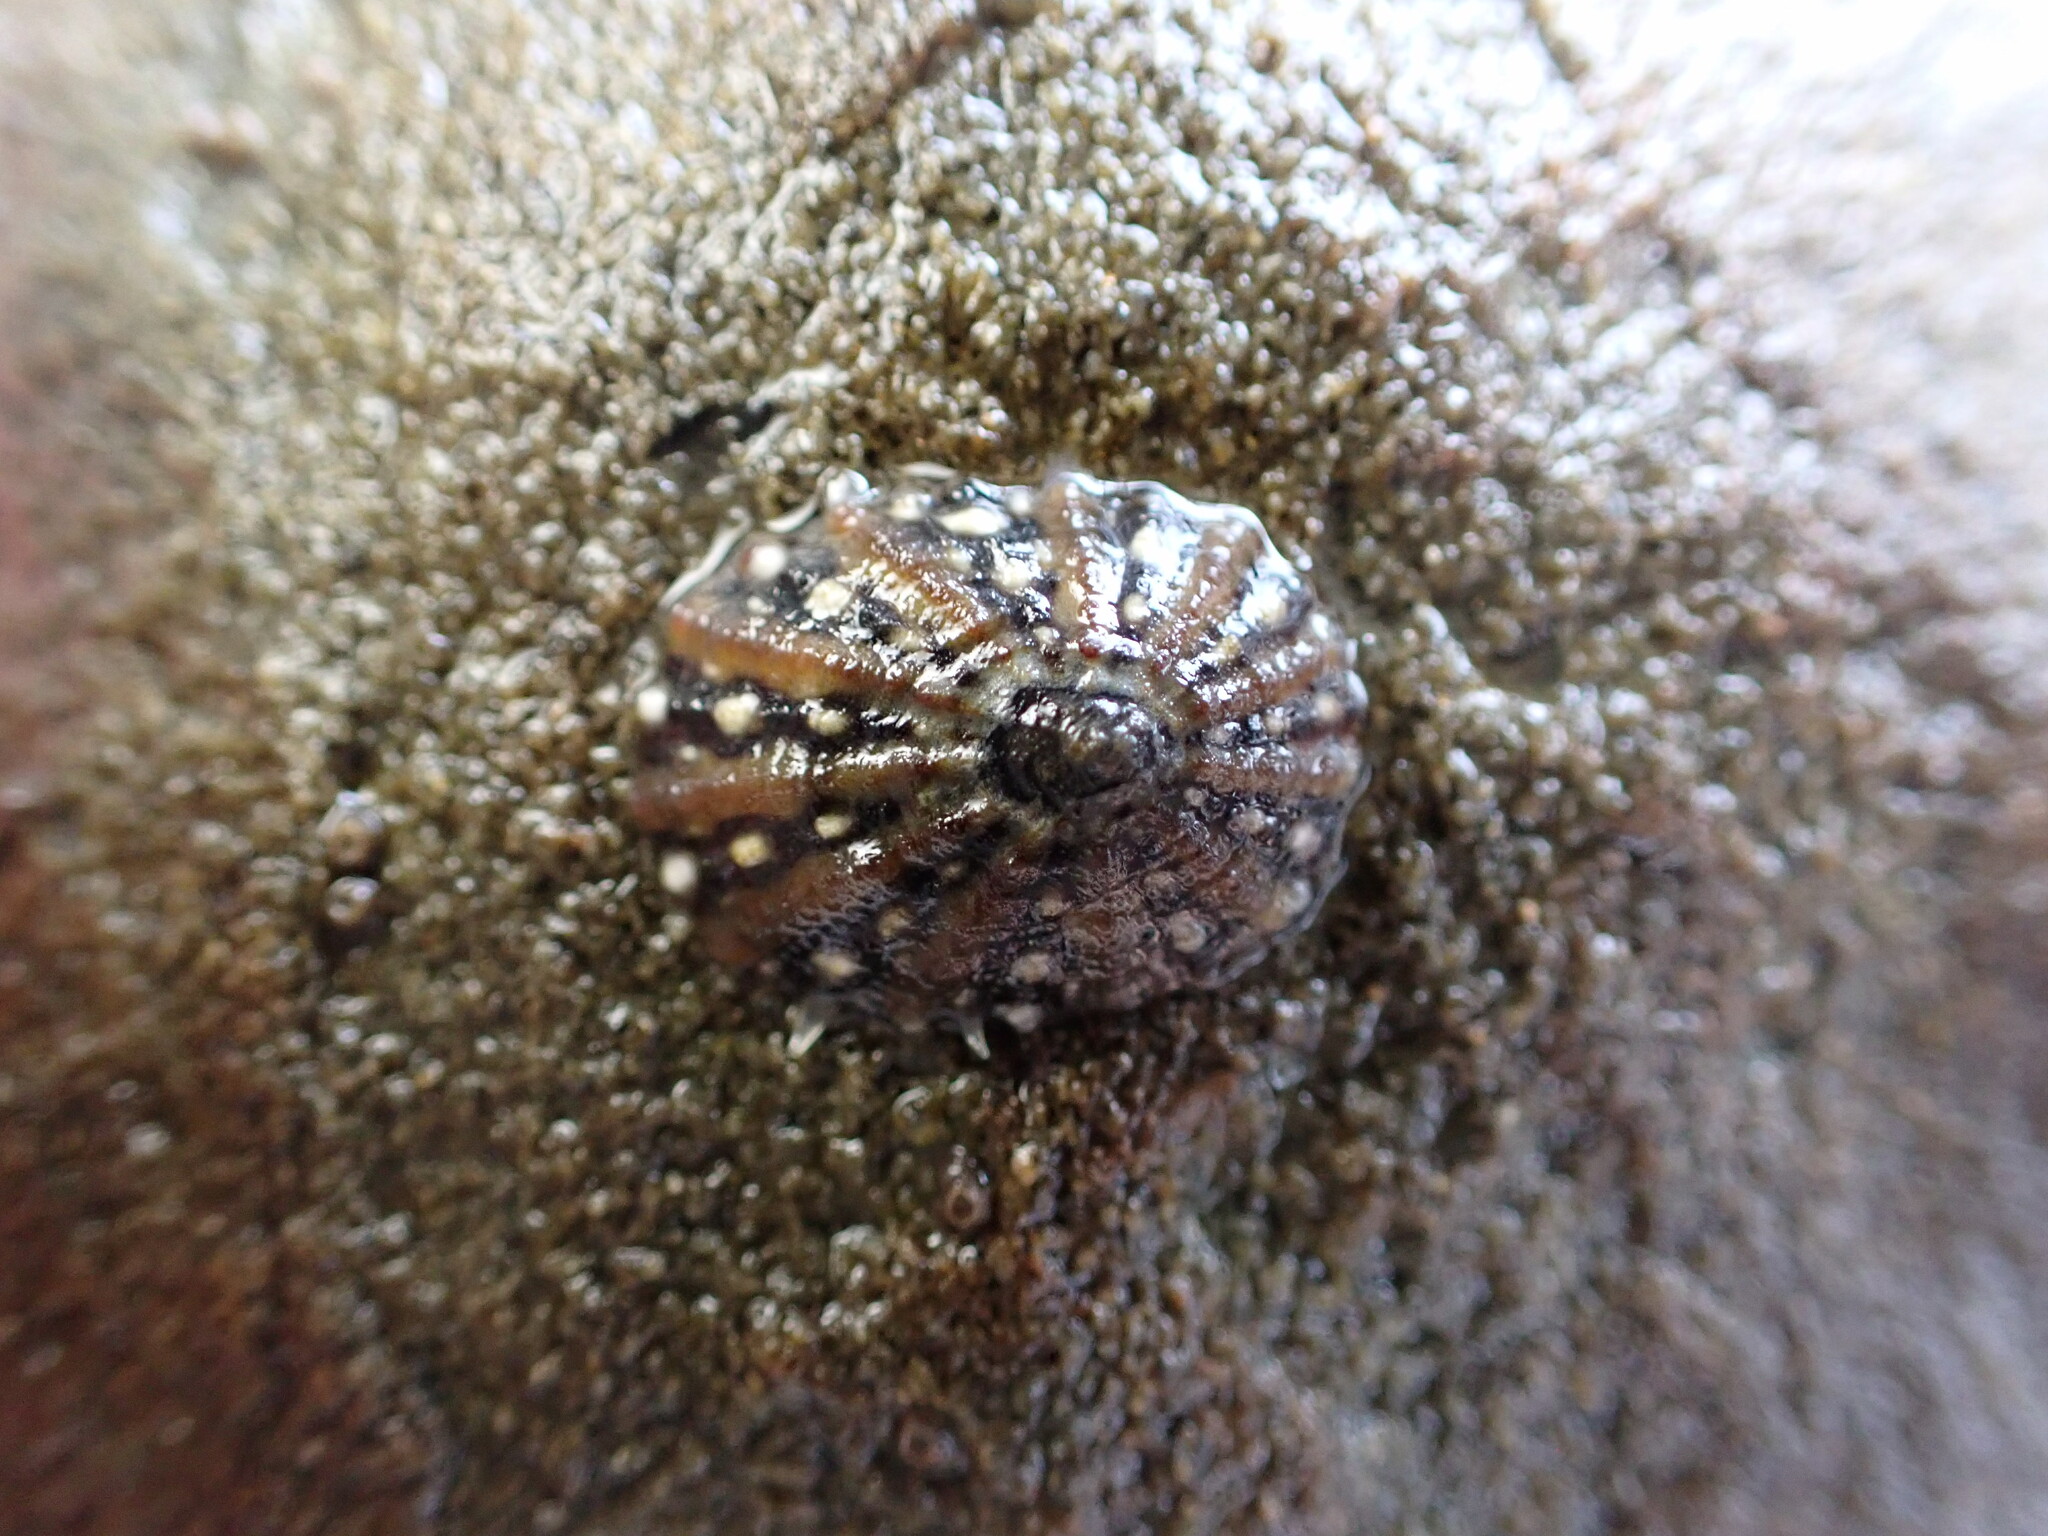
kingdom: Animalia
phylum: Mollusca
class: Gastropoda
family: Nacellidae
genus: Cellana
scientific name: Cellana ornata
